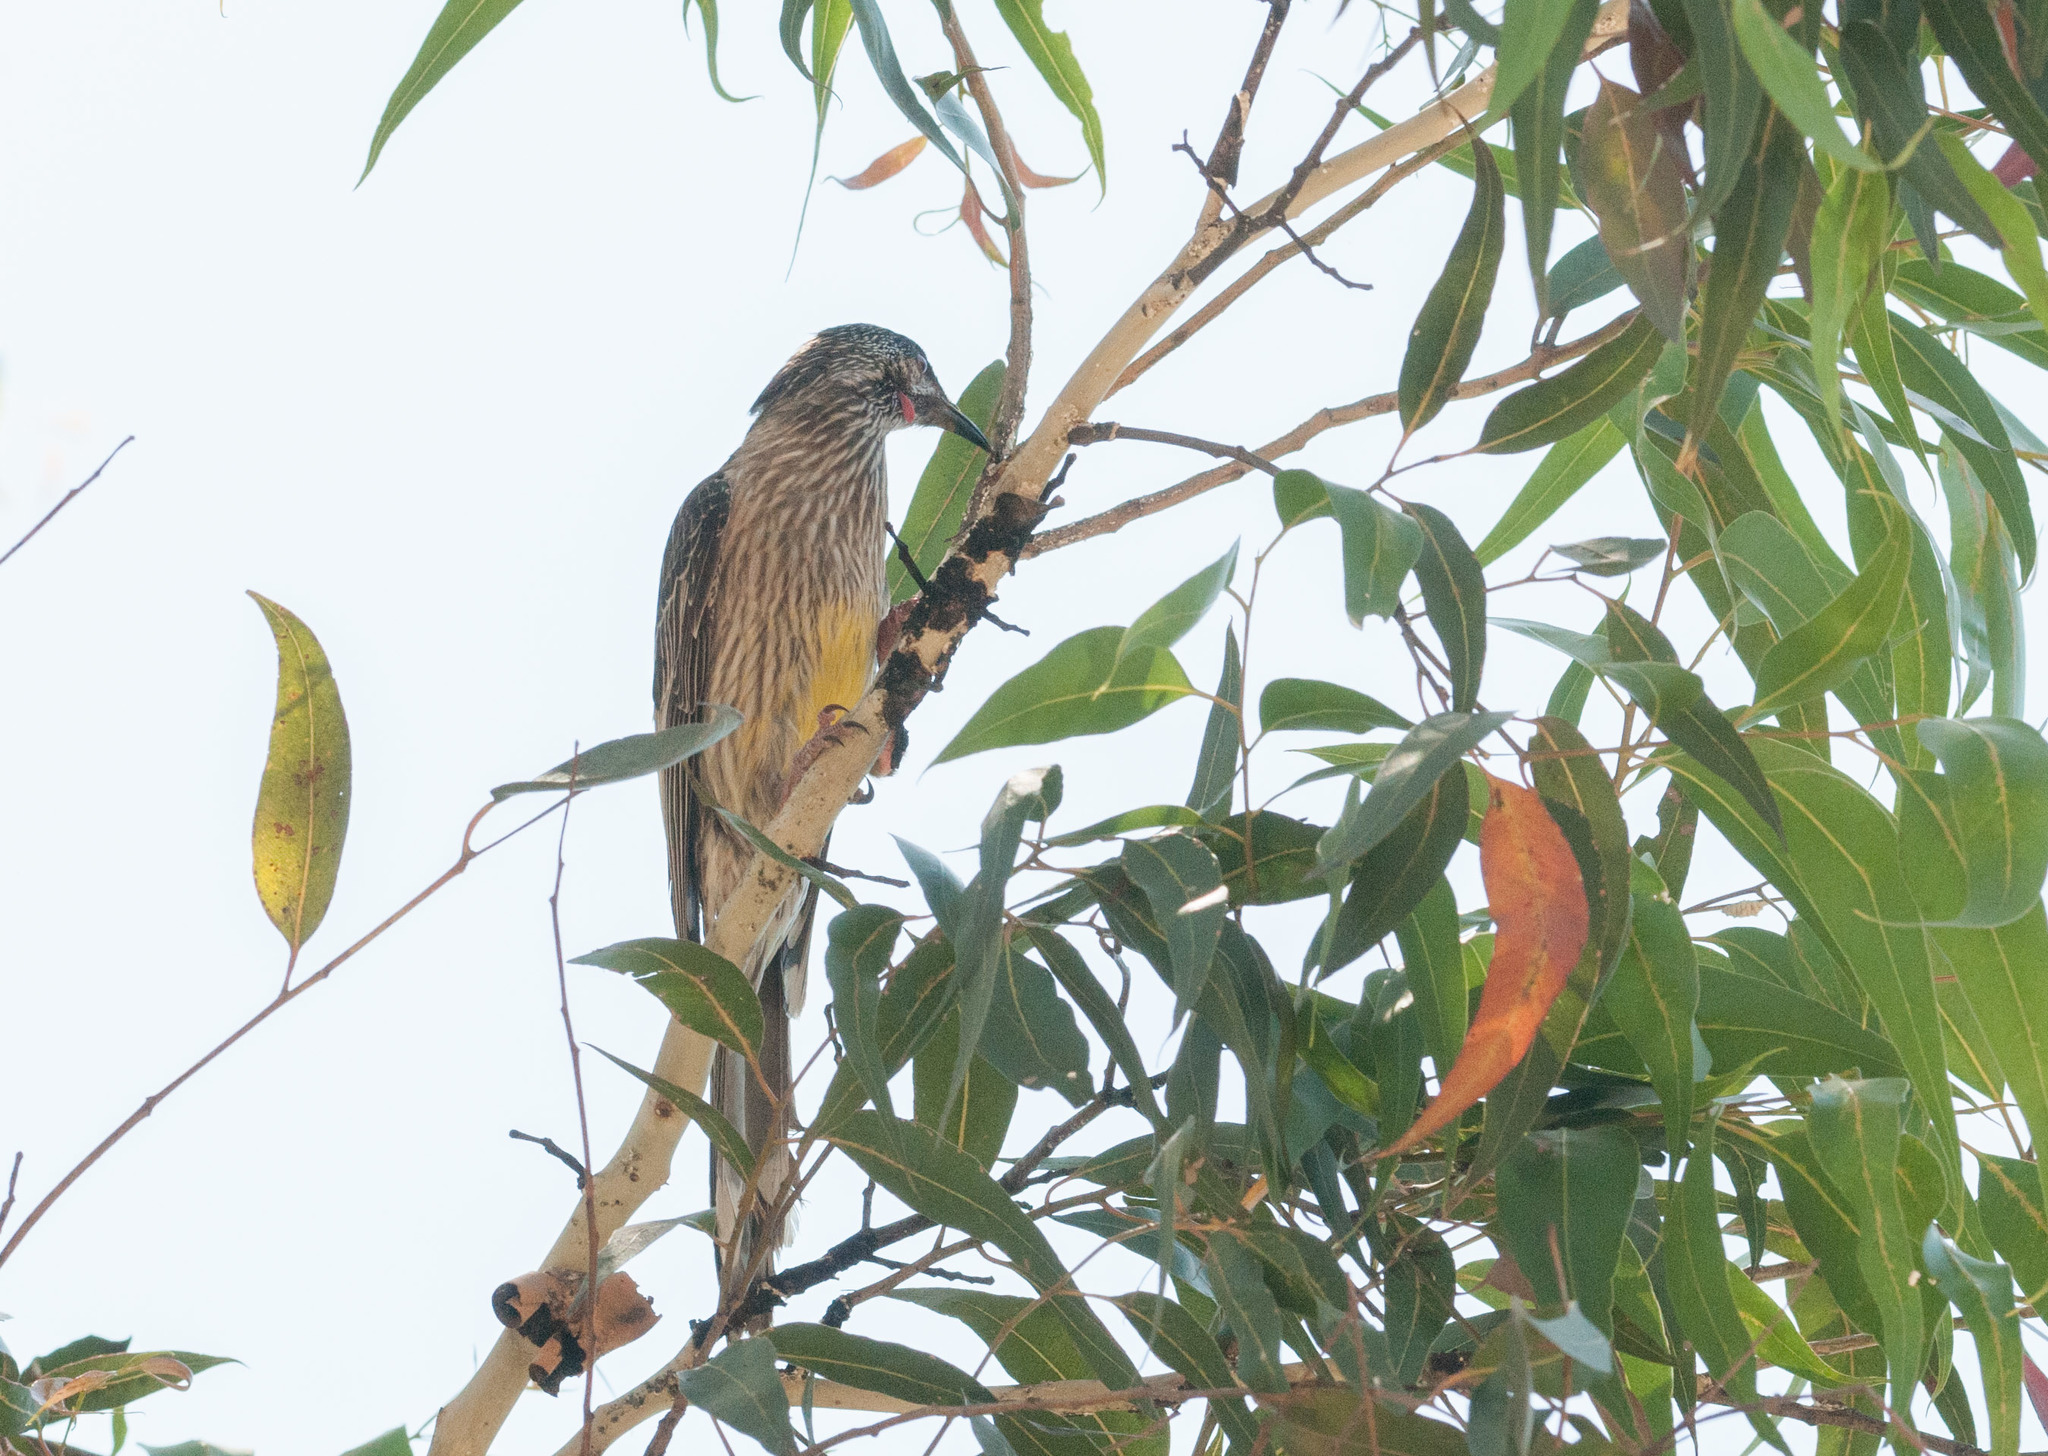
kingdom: Animalia
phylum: Chordata
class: Aves
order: Passeriformes
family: Meliphagidae
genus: Anthochaera
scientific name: Anthochaera carunculata
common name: Red wattlebird
